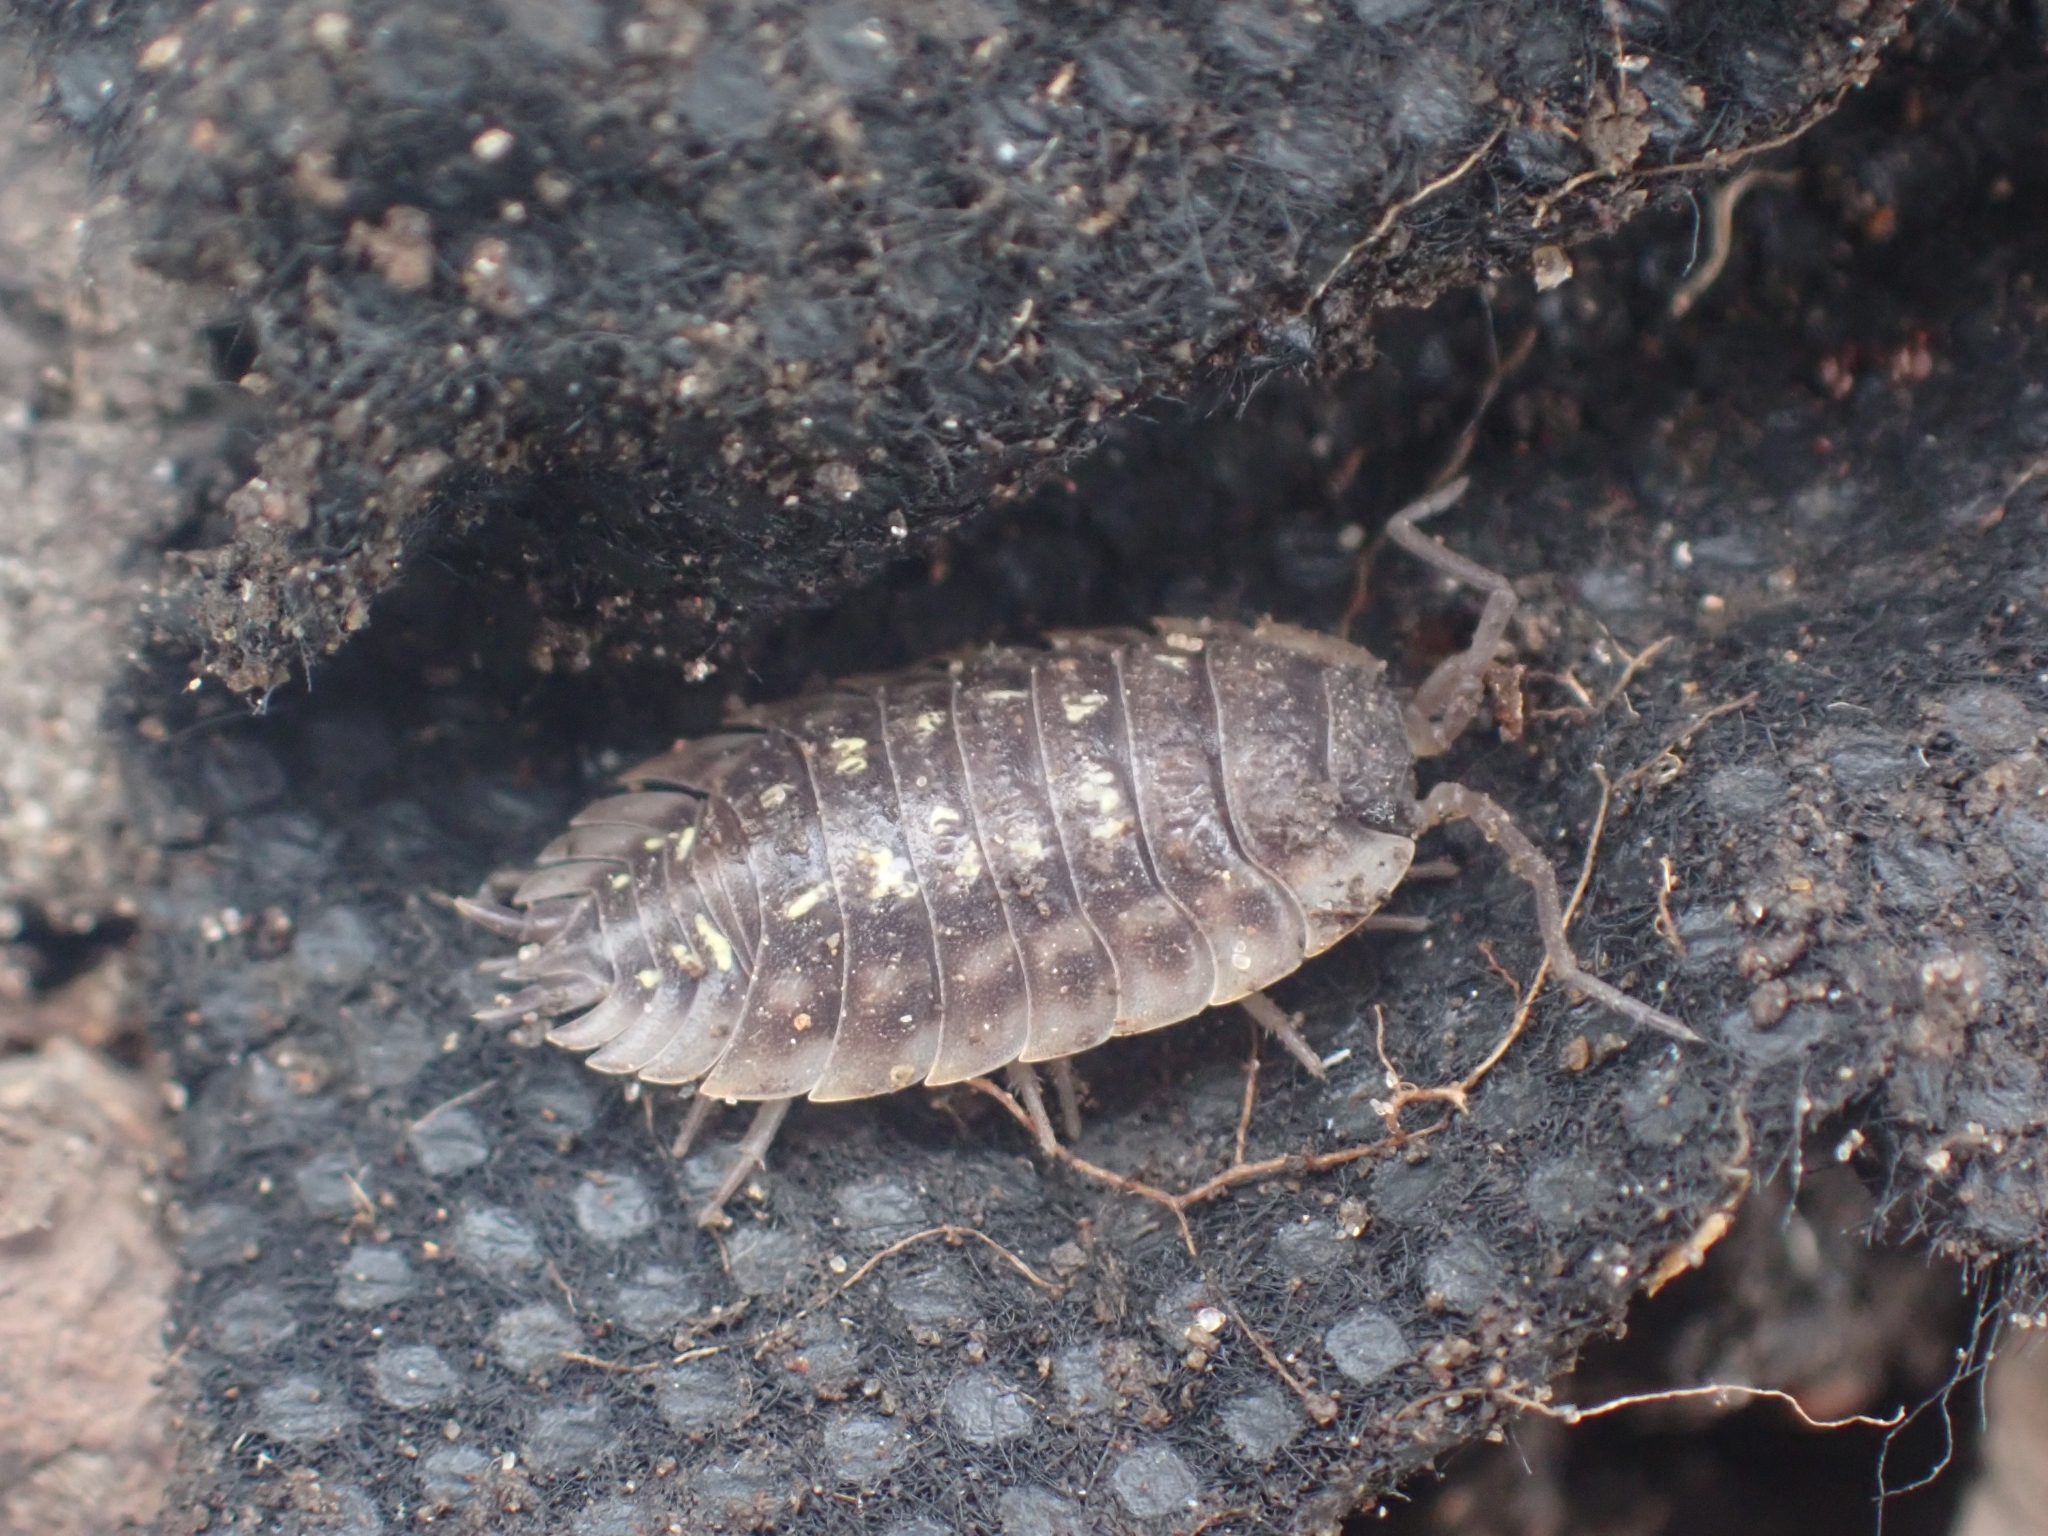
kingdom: Animalia
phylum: Arthropoda
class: Malacostraca
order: Isopoda
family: Oniscidae
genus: Oniscus
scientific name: Oniscus asellus
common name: Common shiny woodlouse
